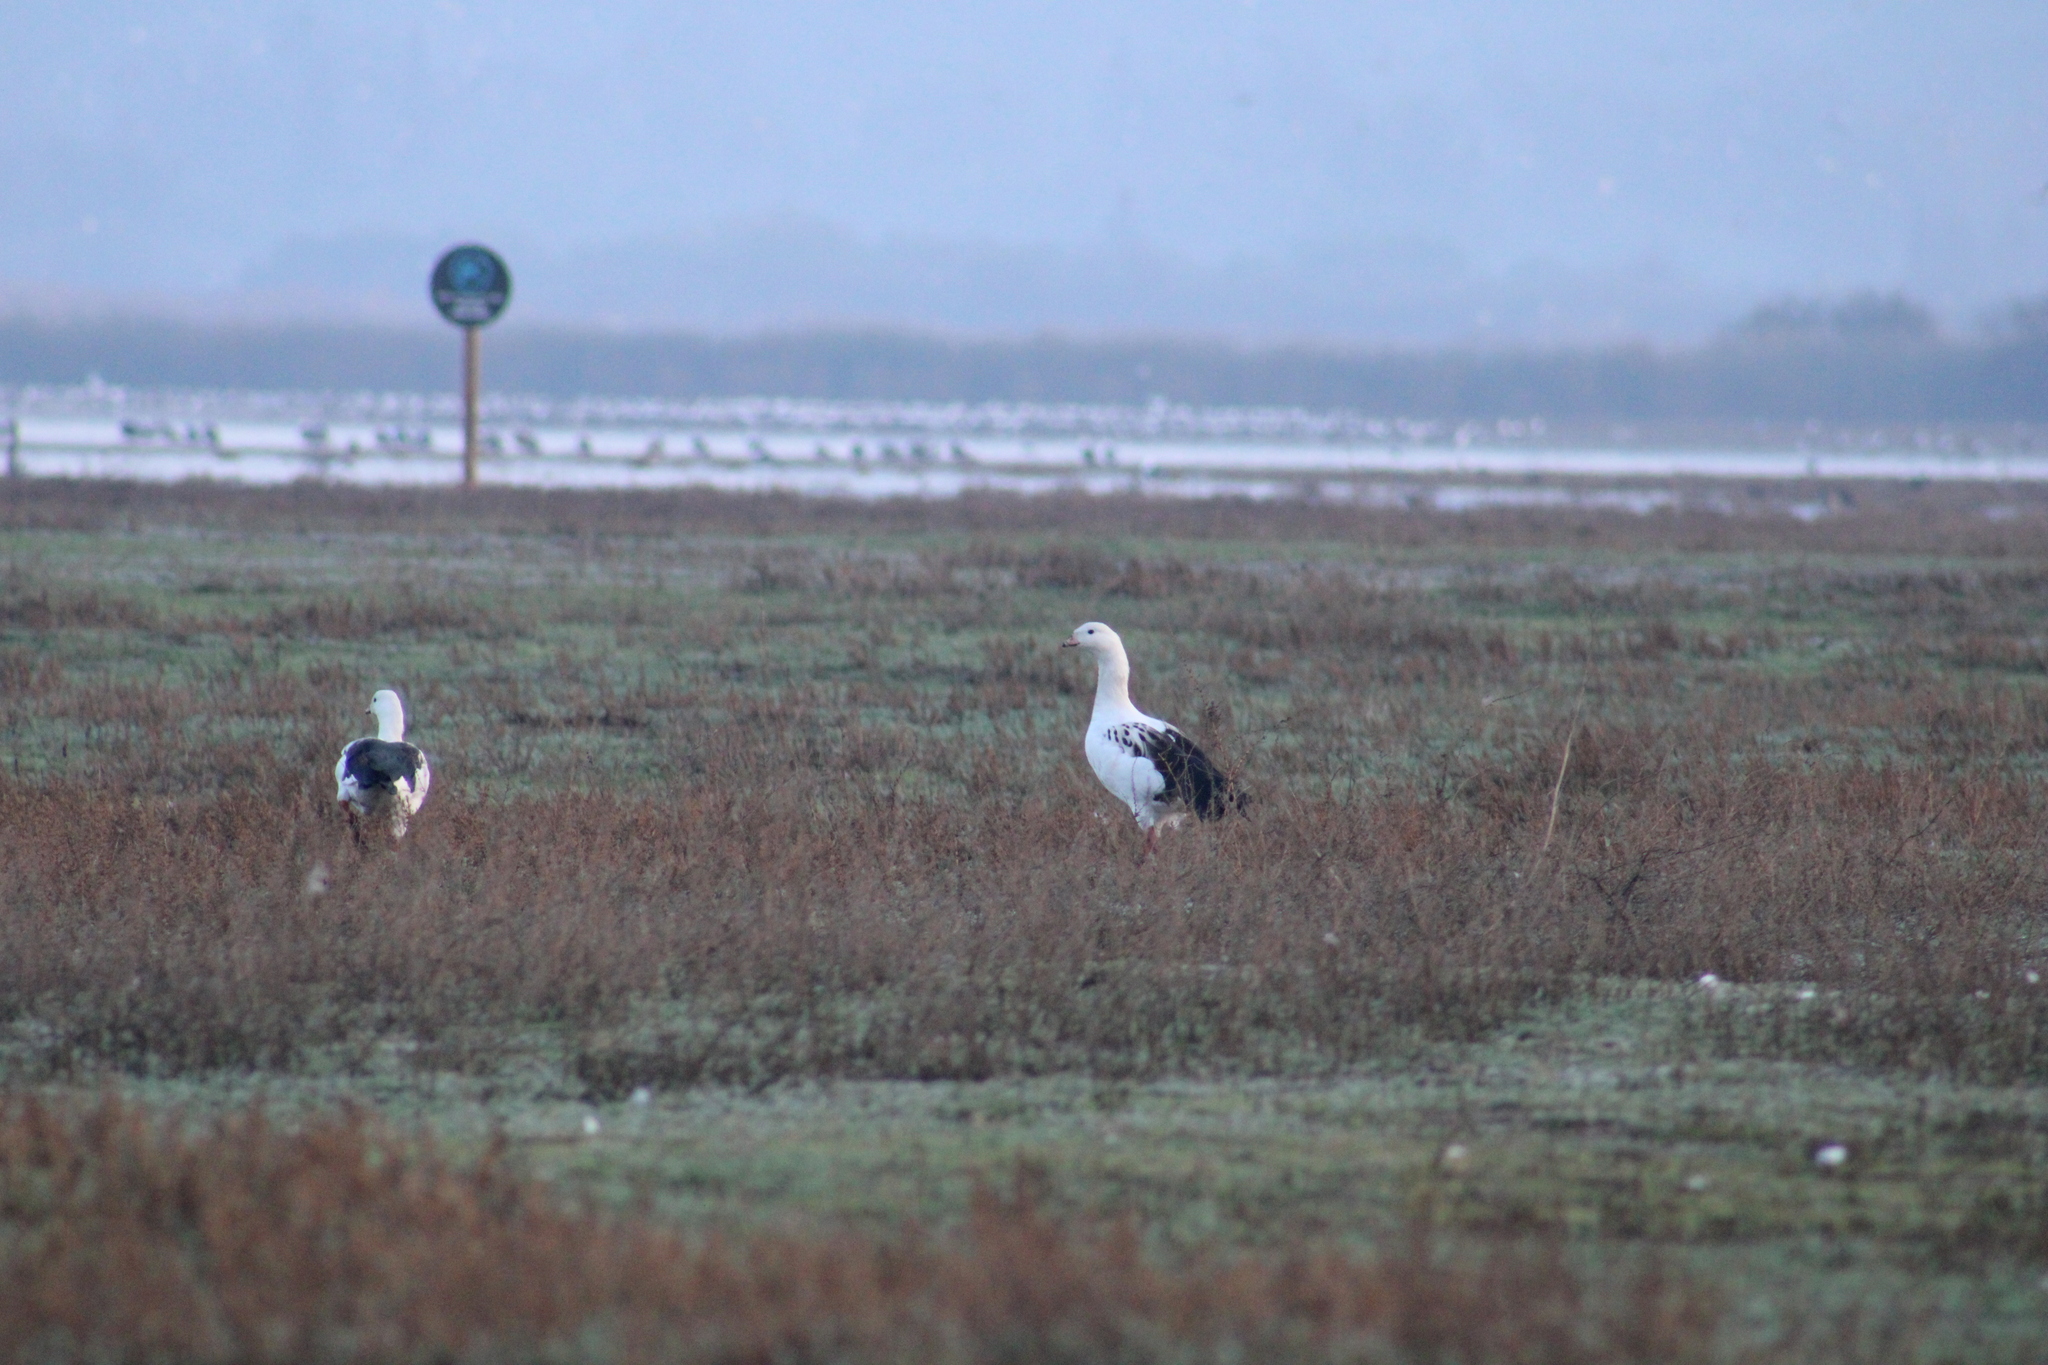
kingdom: Animalia
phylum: Chordata
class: Aves
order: Anseriformes
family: Anatidae
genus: Chloephaga
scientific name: Chloephaga melanoptera
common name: Andean goose
